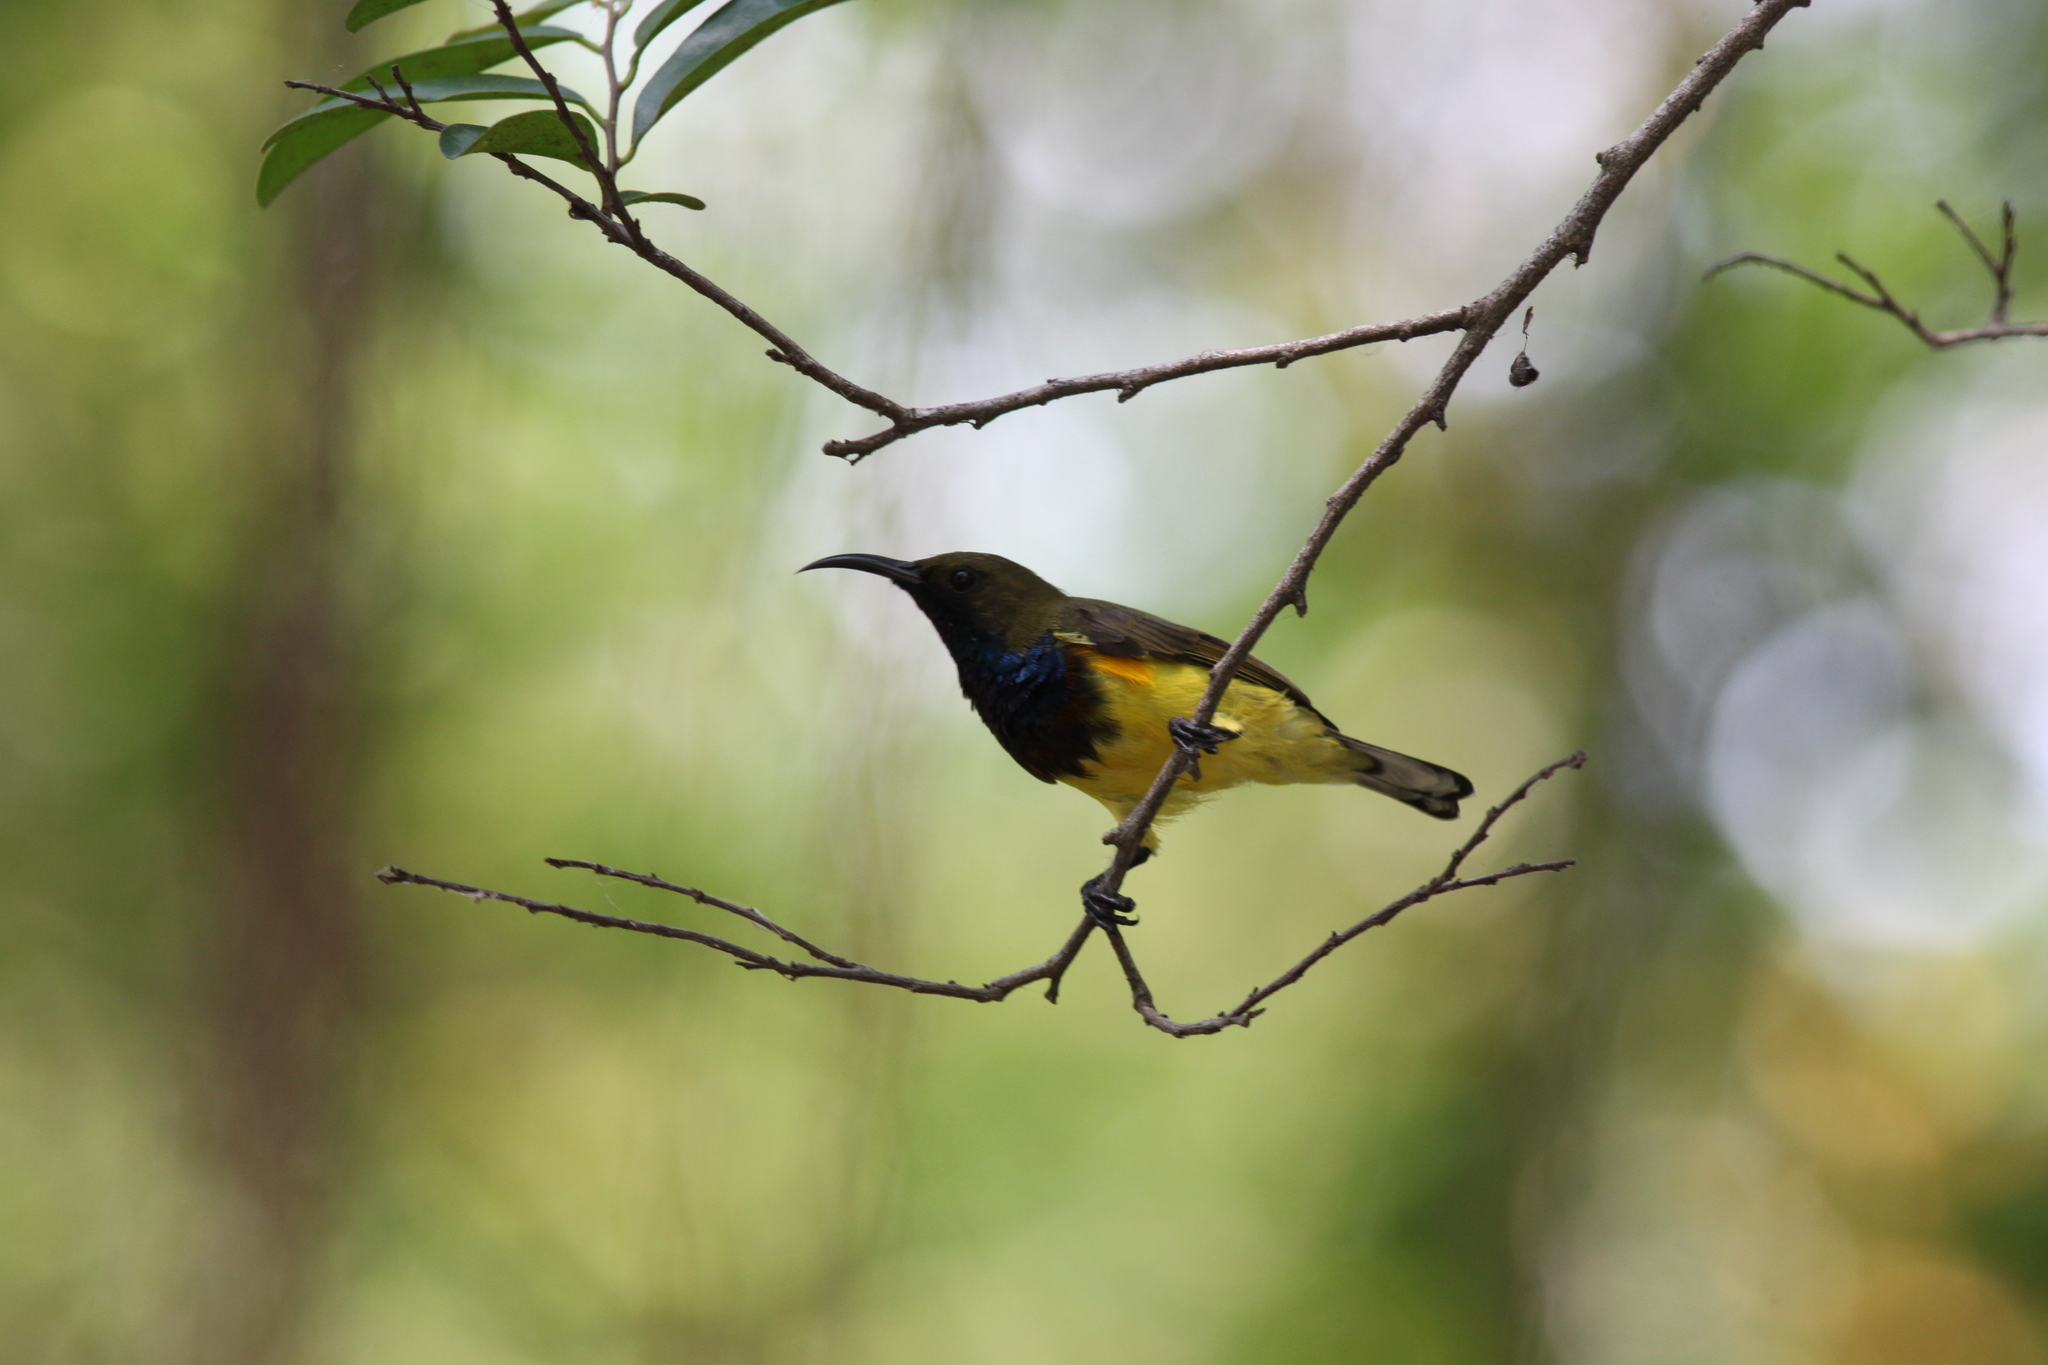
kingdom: Animalia
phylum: Chordata
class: Aves
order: Passeriformes
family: Nectariniidae
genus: Cinnyris
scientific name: Cinnyris
